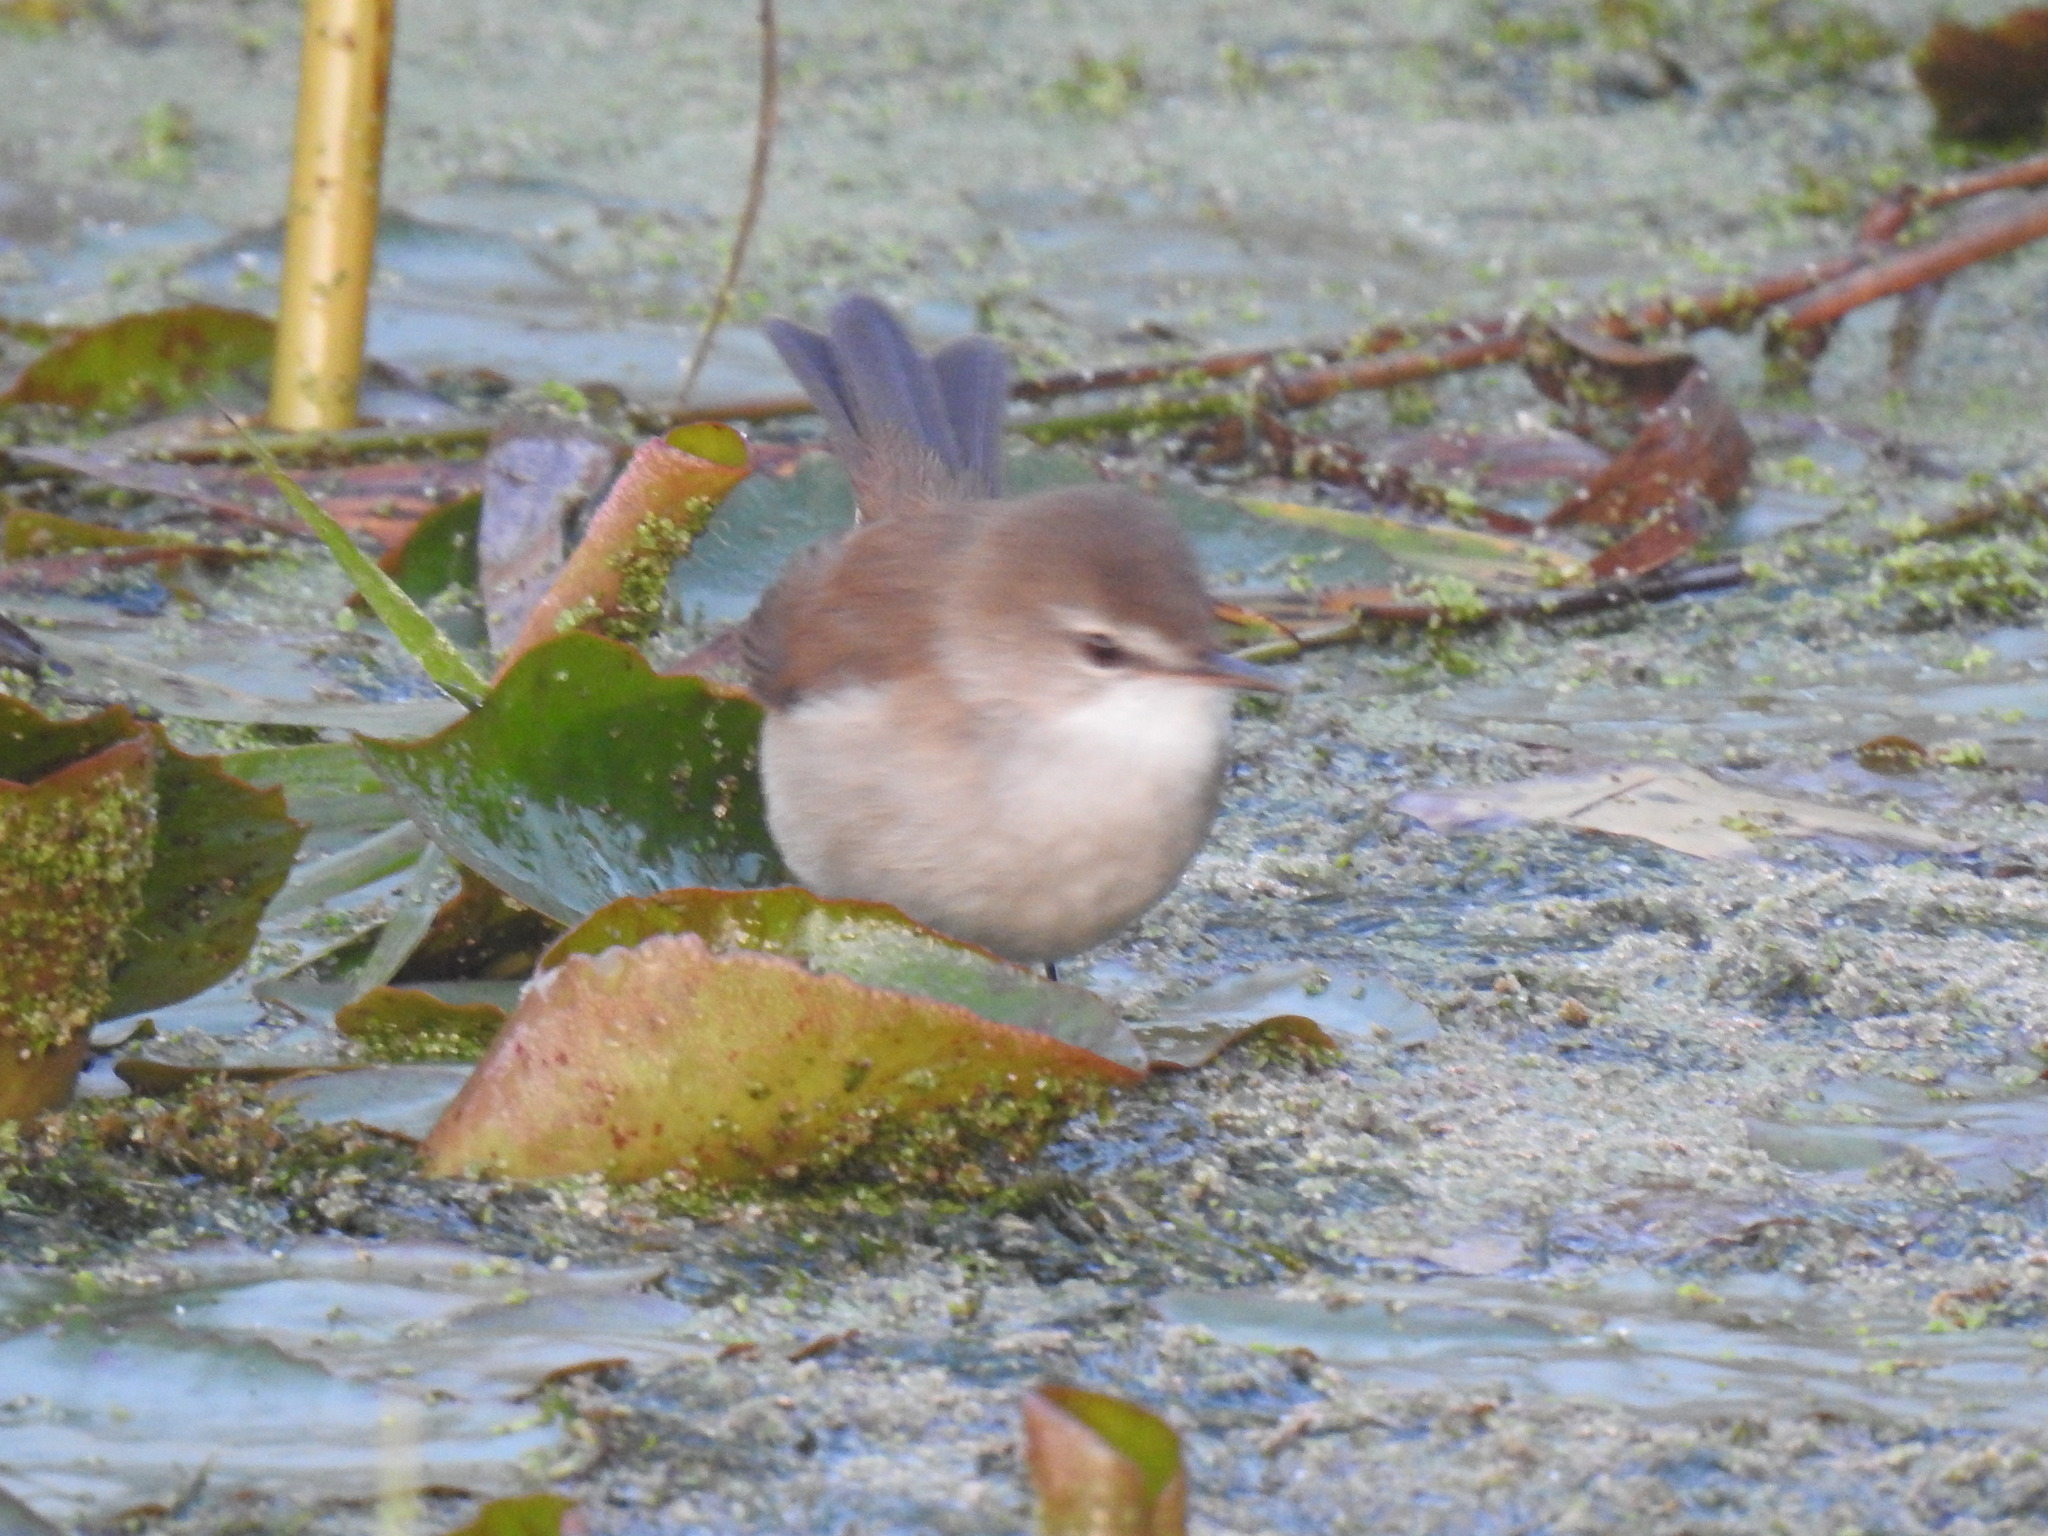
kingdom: Animalia
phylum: Chordata
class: Aves
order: Passeriformes
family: Acrocephalidae
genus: Acrocephalus
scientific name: Acrocephalus gracilirostris
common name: Lesser swamp warbler
